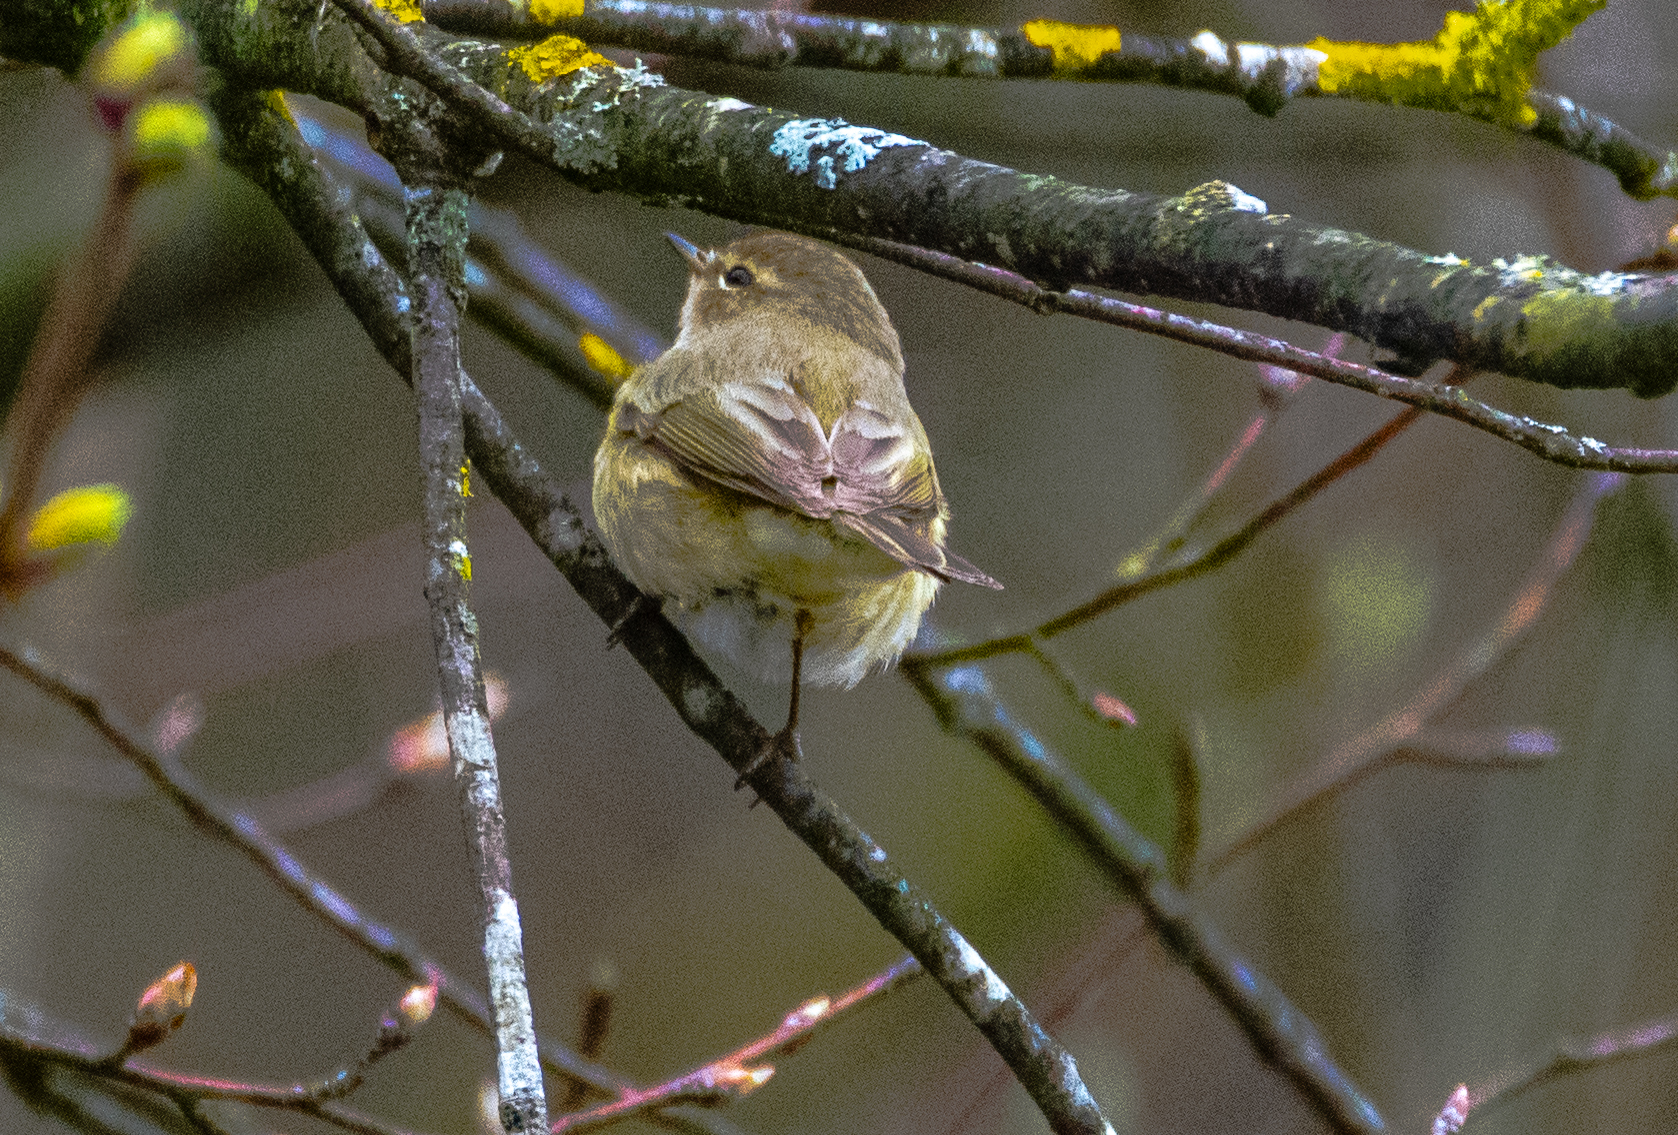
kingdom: Animalia
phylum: Chordata
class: Aves
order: Passeriformes
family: Phylloscopidae
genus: Phylloscopus
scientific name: Phylloscopus collybita
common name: Common chiffchaff
